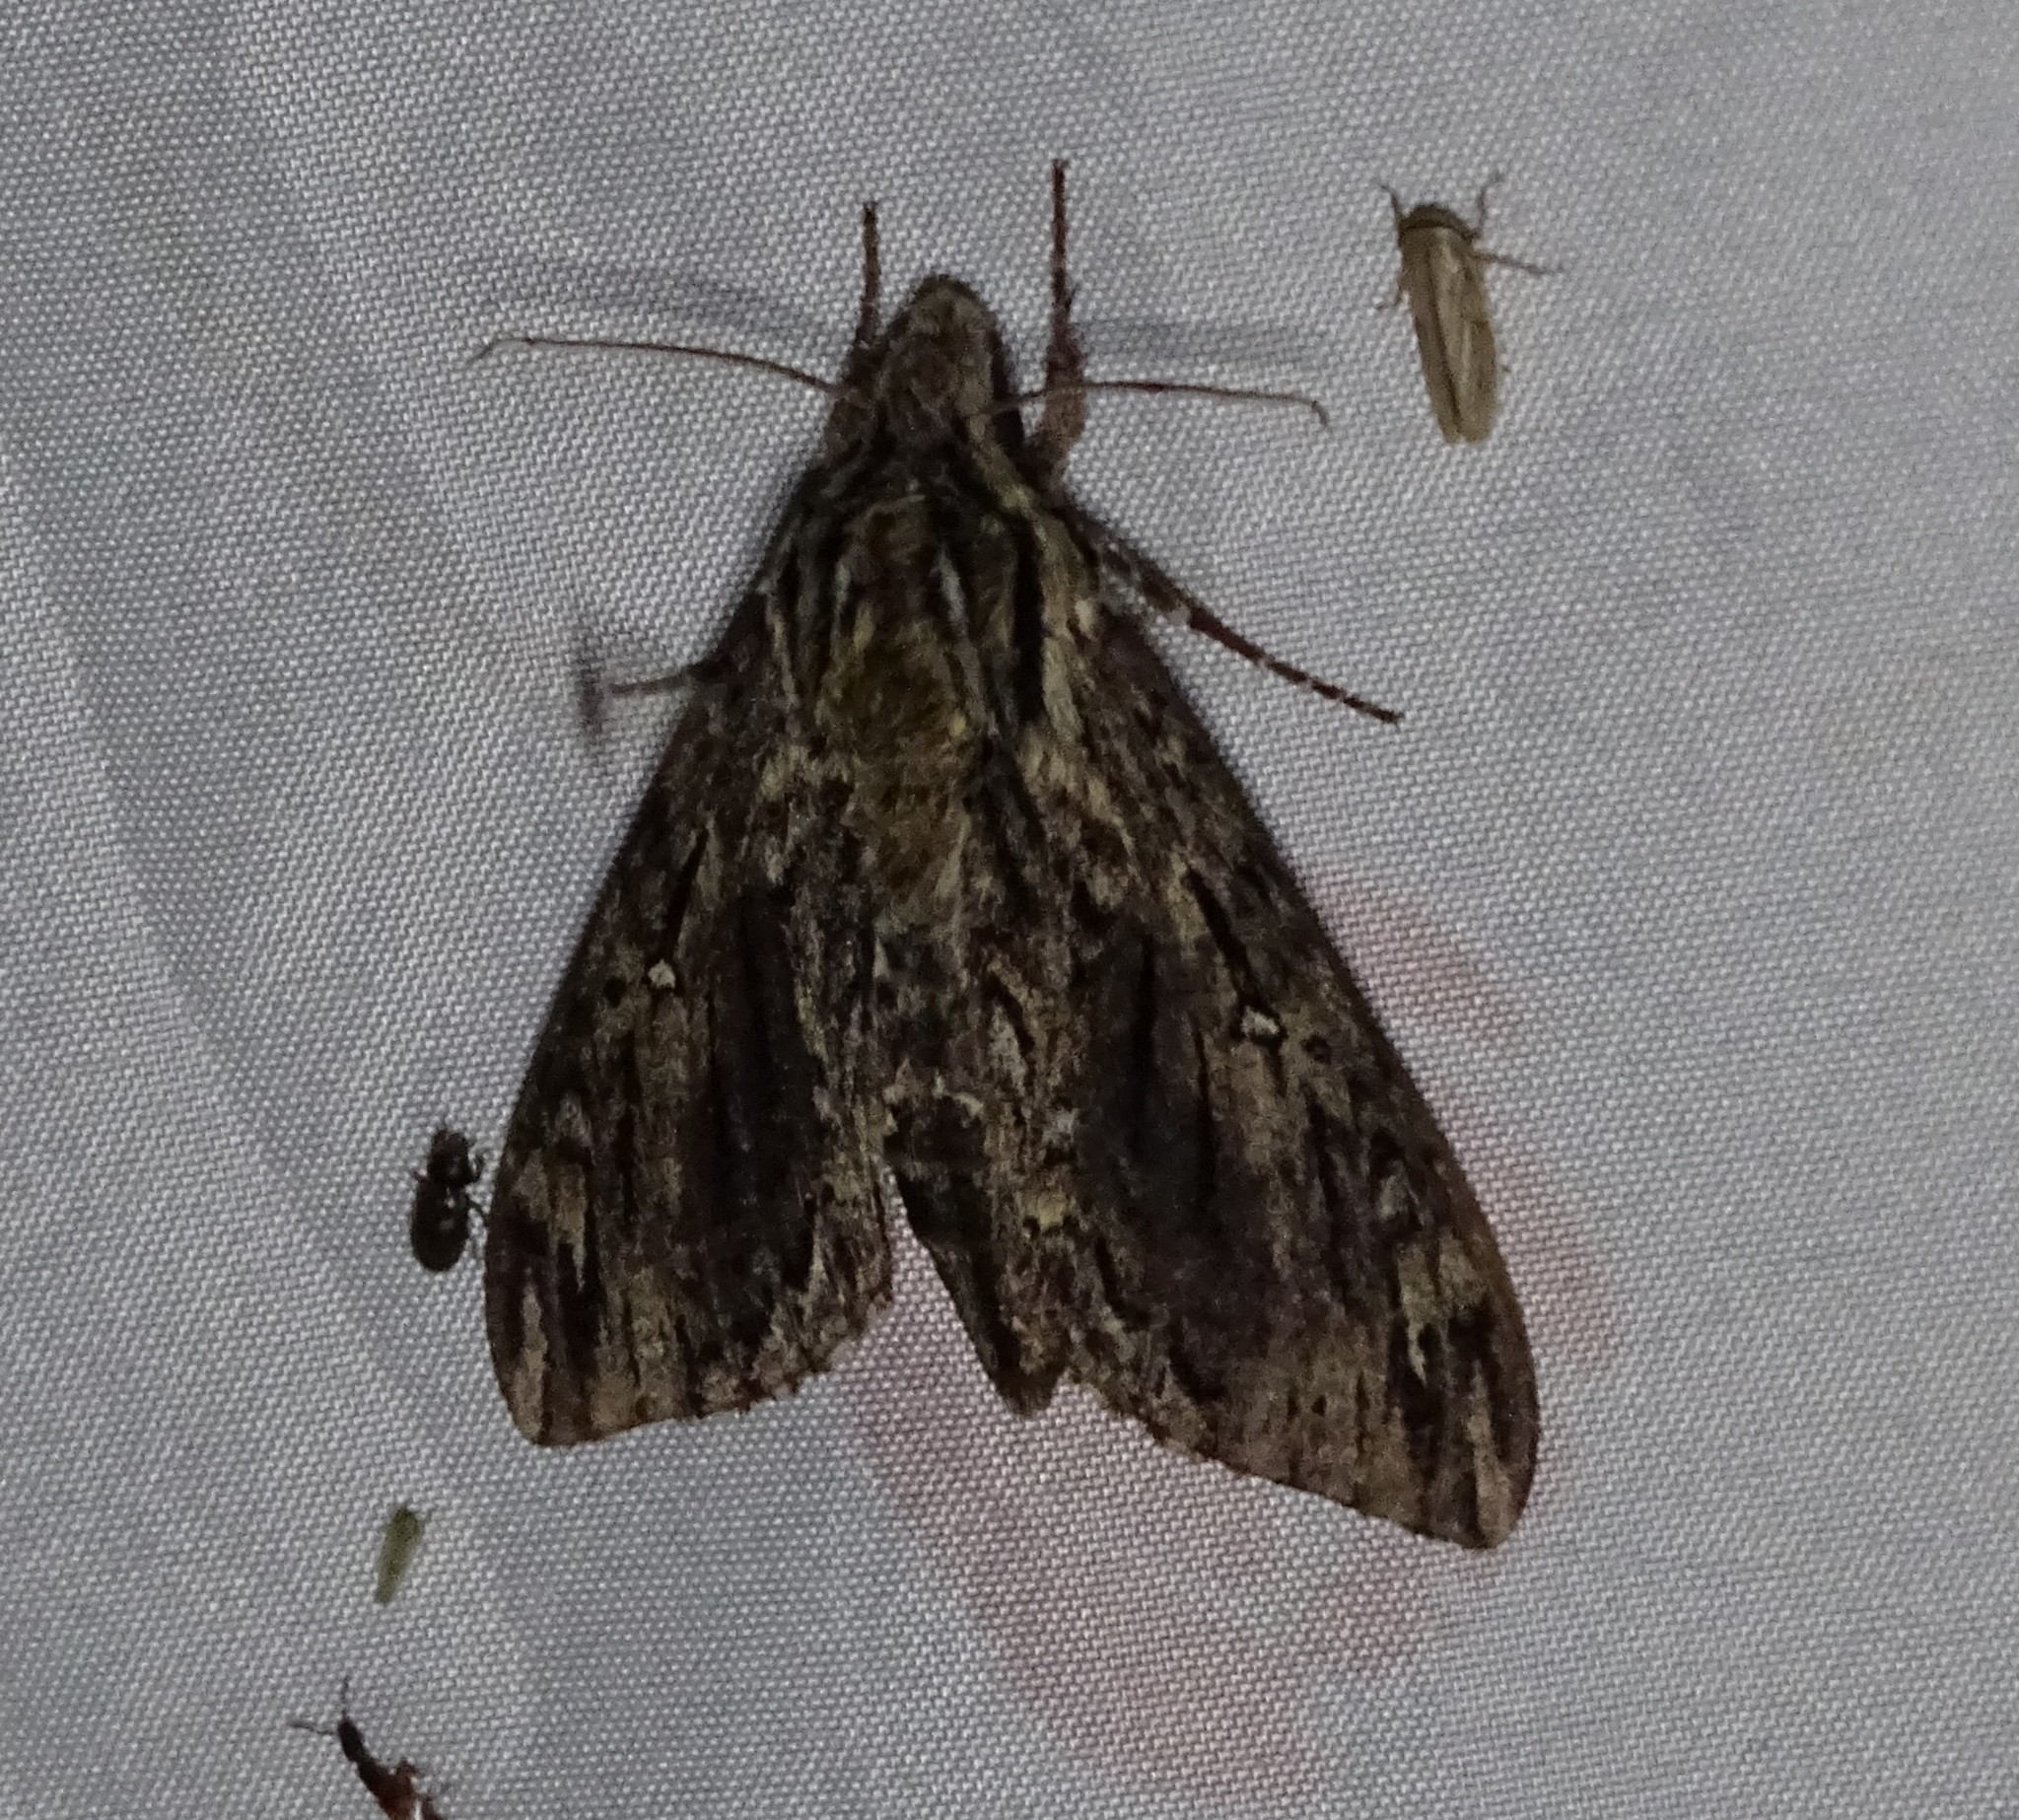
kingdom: Animalia
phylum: Arthropoda
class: Insecta
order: Lepidoptera
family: Sphingidae
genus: Lintneria
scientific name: Lintneria eremitus
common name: Hermit sphinx
